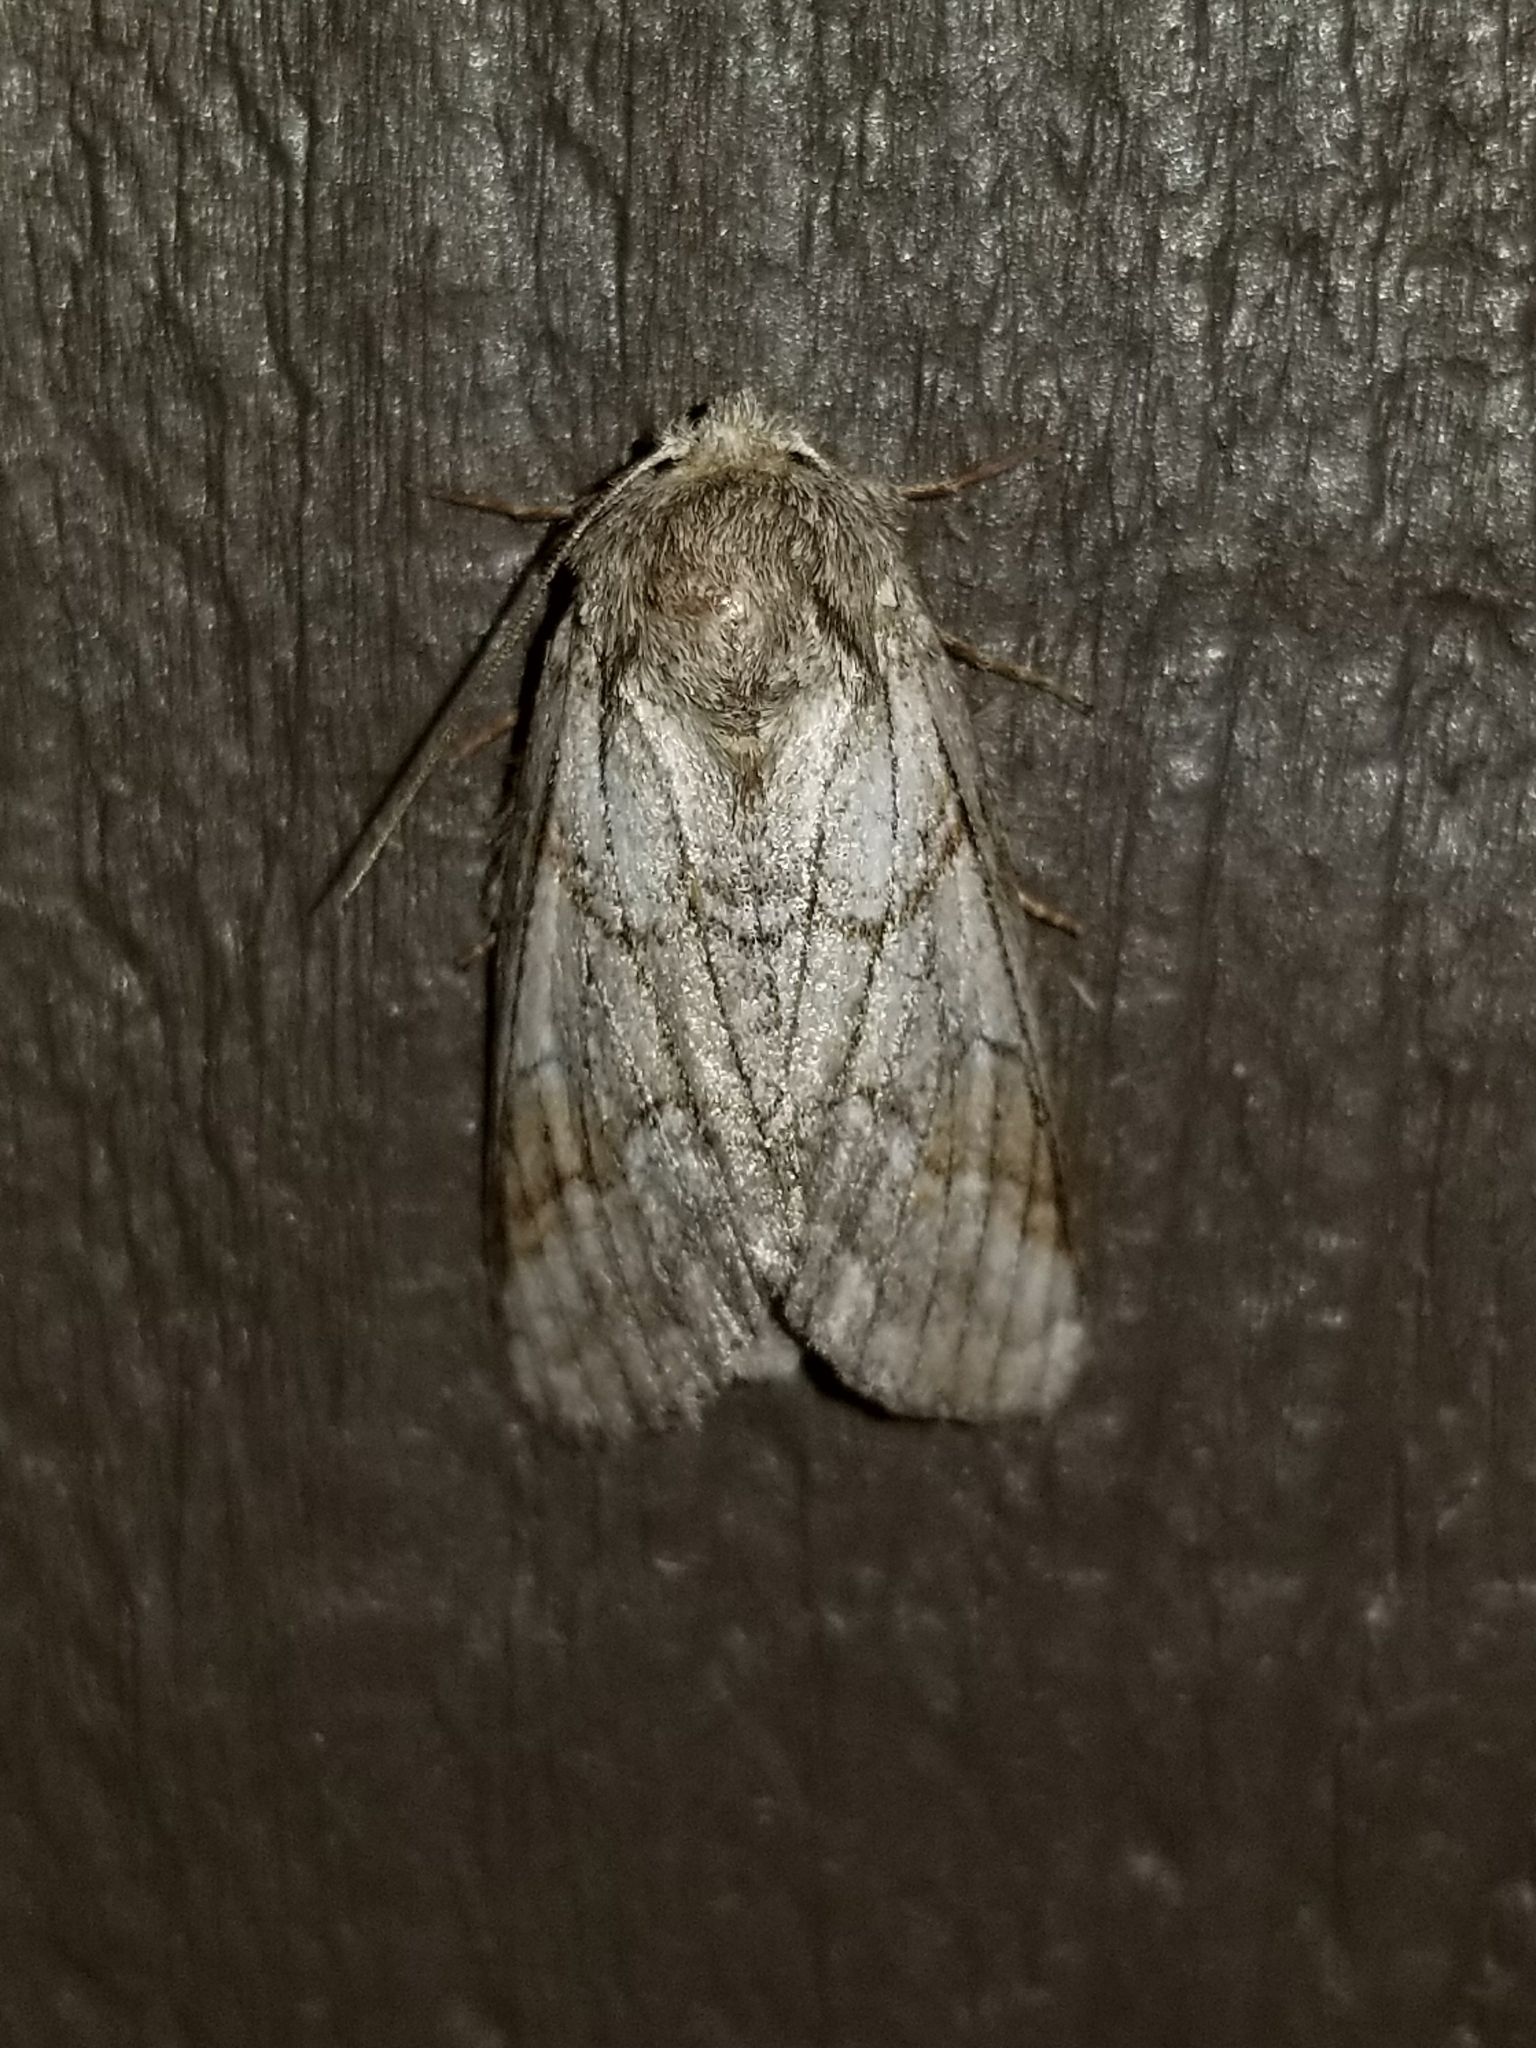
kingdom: Animalia
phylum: Arthropoda
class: Insecta
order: Lepidoptera
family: Notodontidae
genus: Lochmaeus
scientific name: Lochmaeus bilineata
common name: Double-lined prominent
